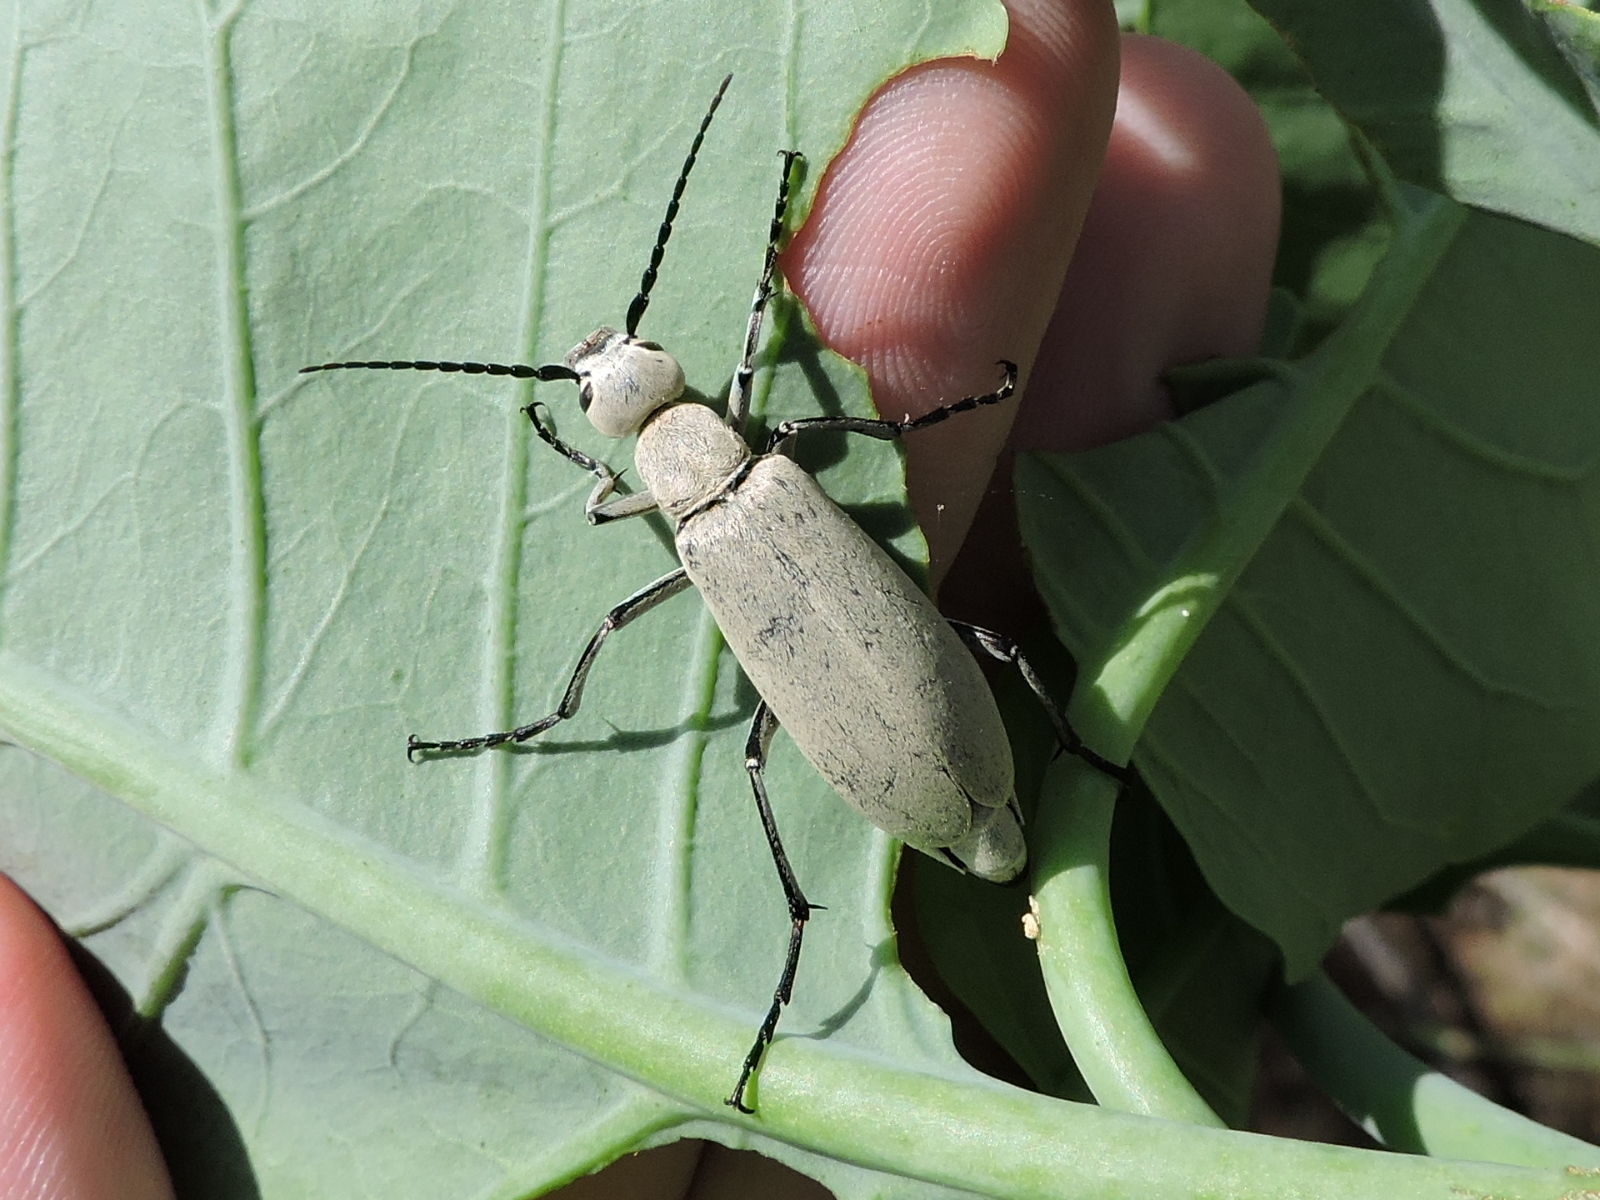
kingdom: Animalia
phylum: Arthropoda
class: Insecta
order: Coleoptera
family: Meloidae
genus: Epicauta
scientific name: Epicauta immaculata
